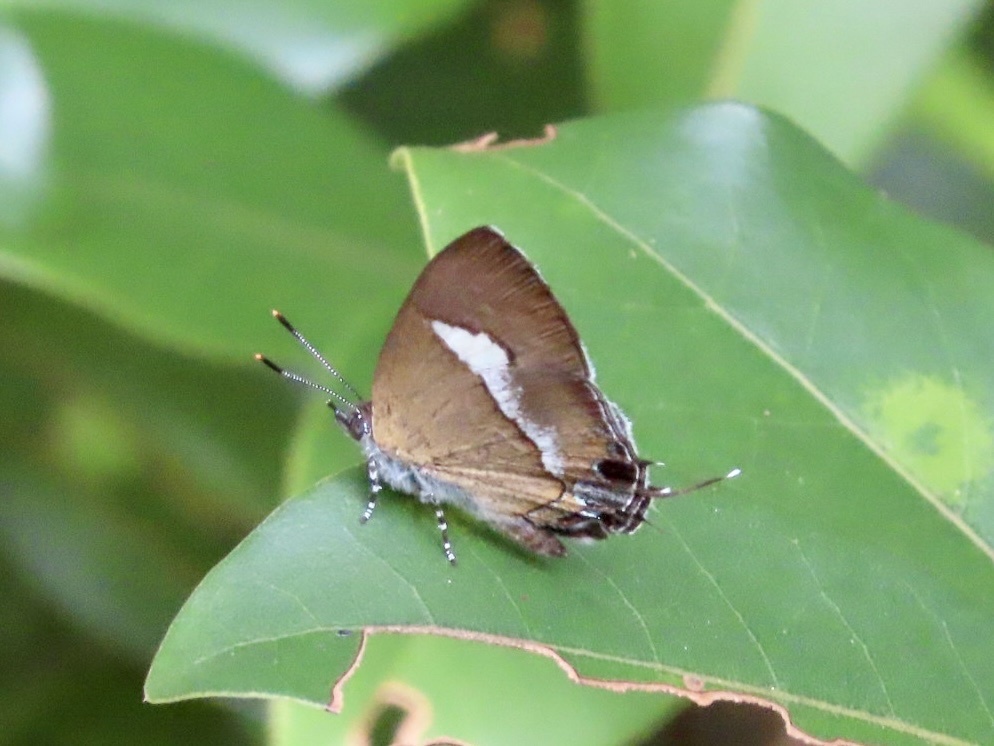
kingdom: Animalia
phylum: Arthropoda
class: Insecta
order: Lepidoptera
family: Lycaenidae
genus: Horaga
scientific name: Horaga onyx
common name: Common onyx
